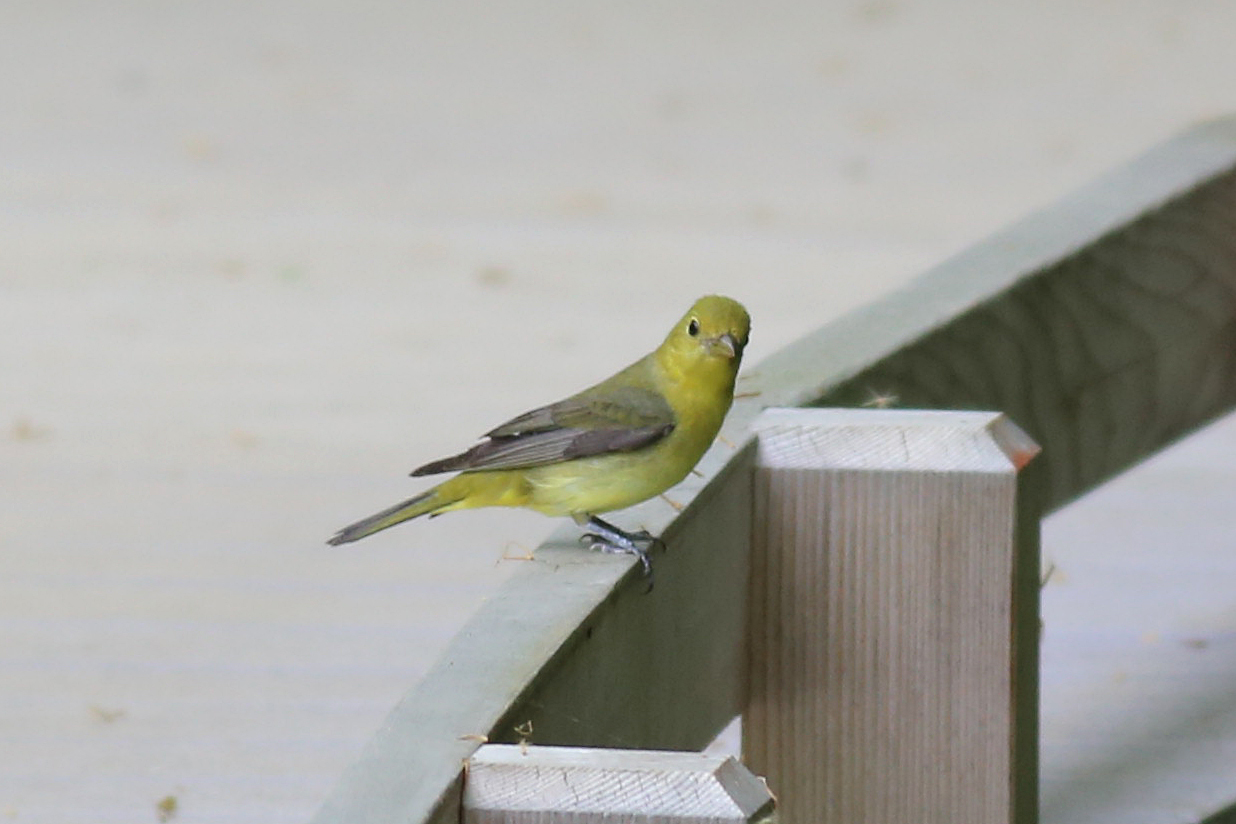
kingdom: Animalia
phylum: Chordata
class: Aves
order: Passeriformes
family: Cardinalidae
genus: Piranga
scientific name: Piranga olivacea
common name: Scarlet tanager
